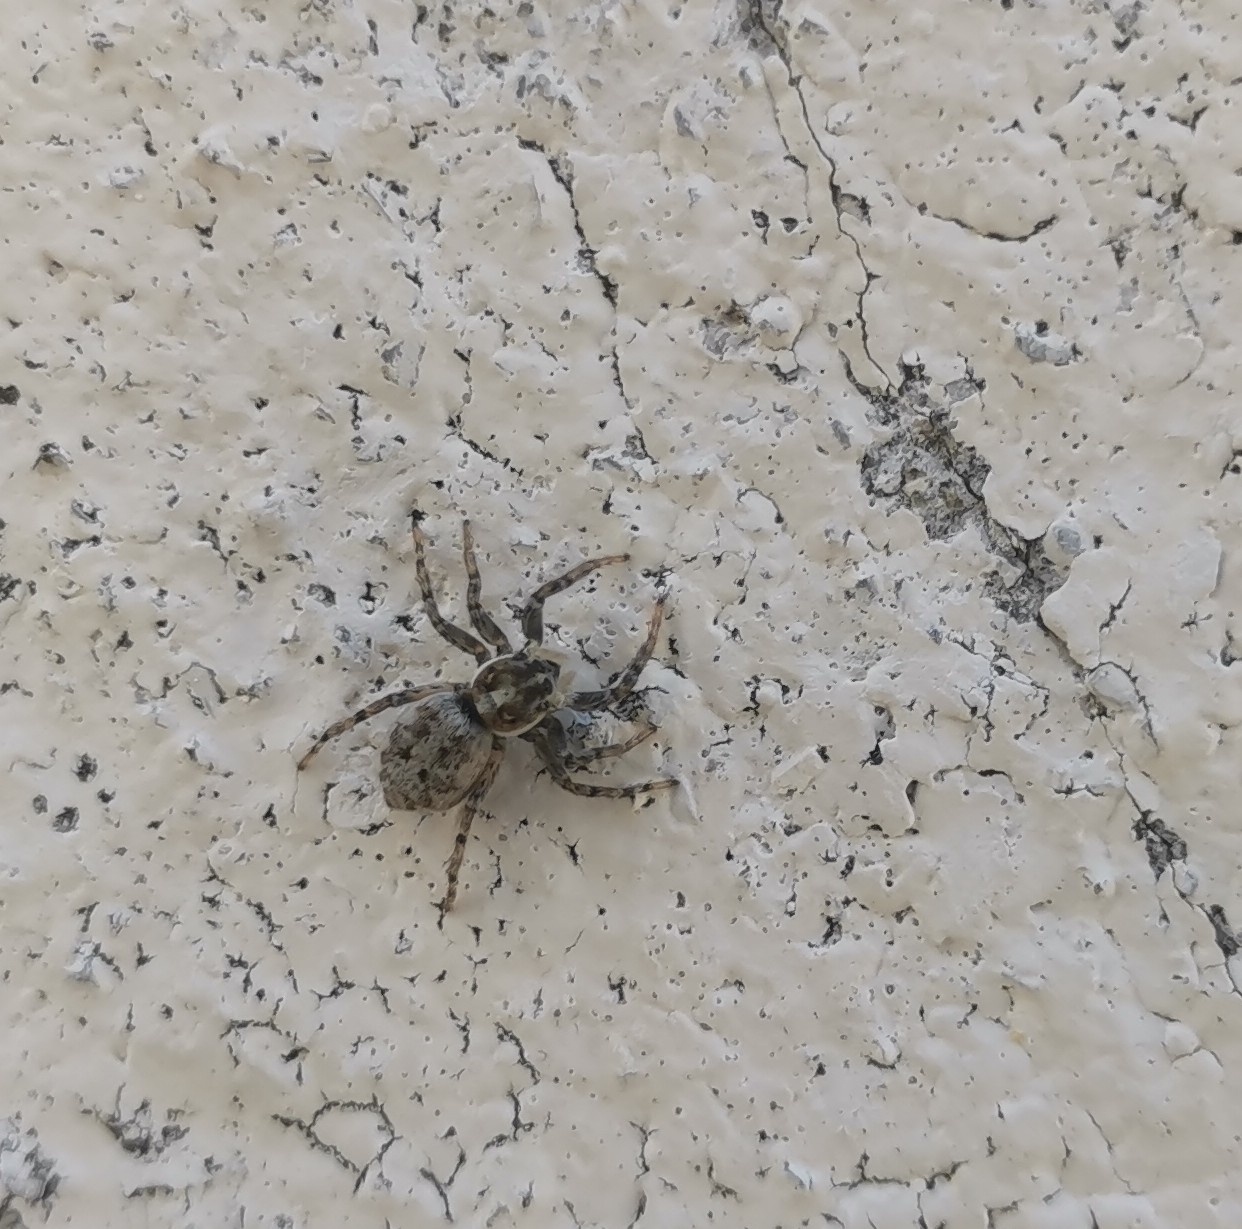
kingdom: Animalia
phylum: Arthropoda
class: Arachnida
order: Araneae
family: Salticidae
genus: Menemerus
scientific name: Menemerus semilimbatus
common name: Jumping spider
